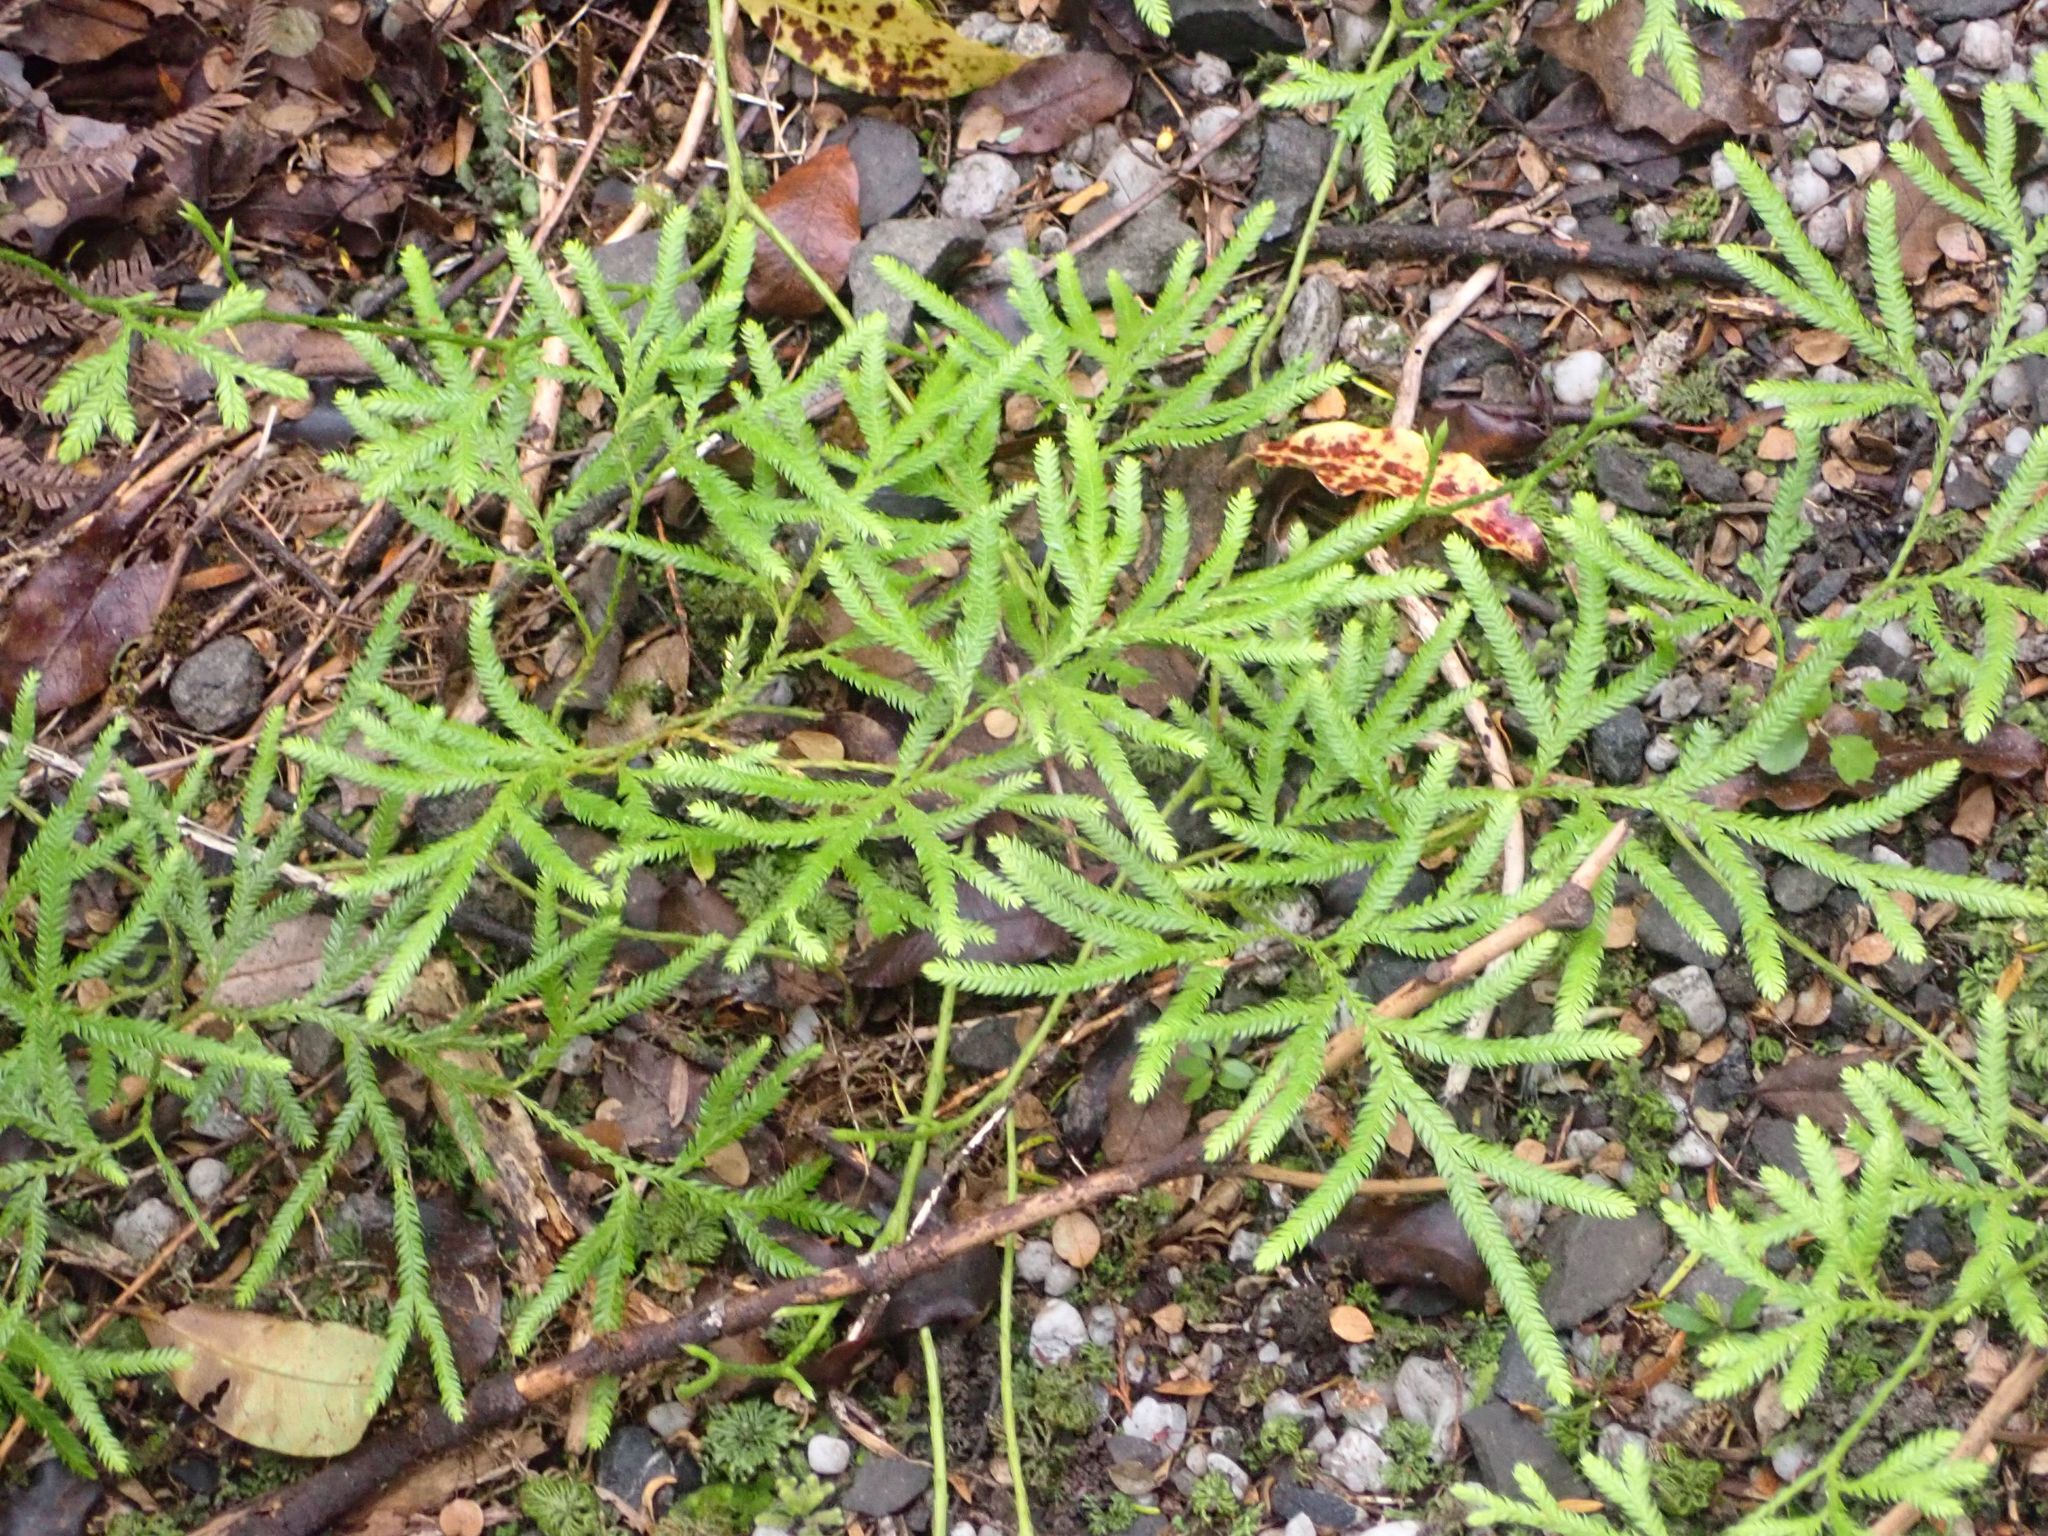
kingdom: Plantae
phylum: Tracheophyta
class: Lycopodiopsida
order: Lycopodiales
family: Lycopodiaceae
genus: Lycopodium
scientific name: Lycopodium volubile
